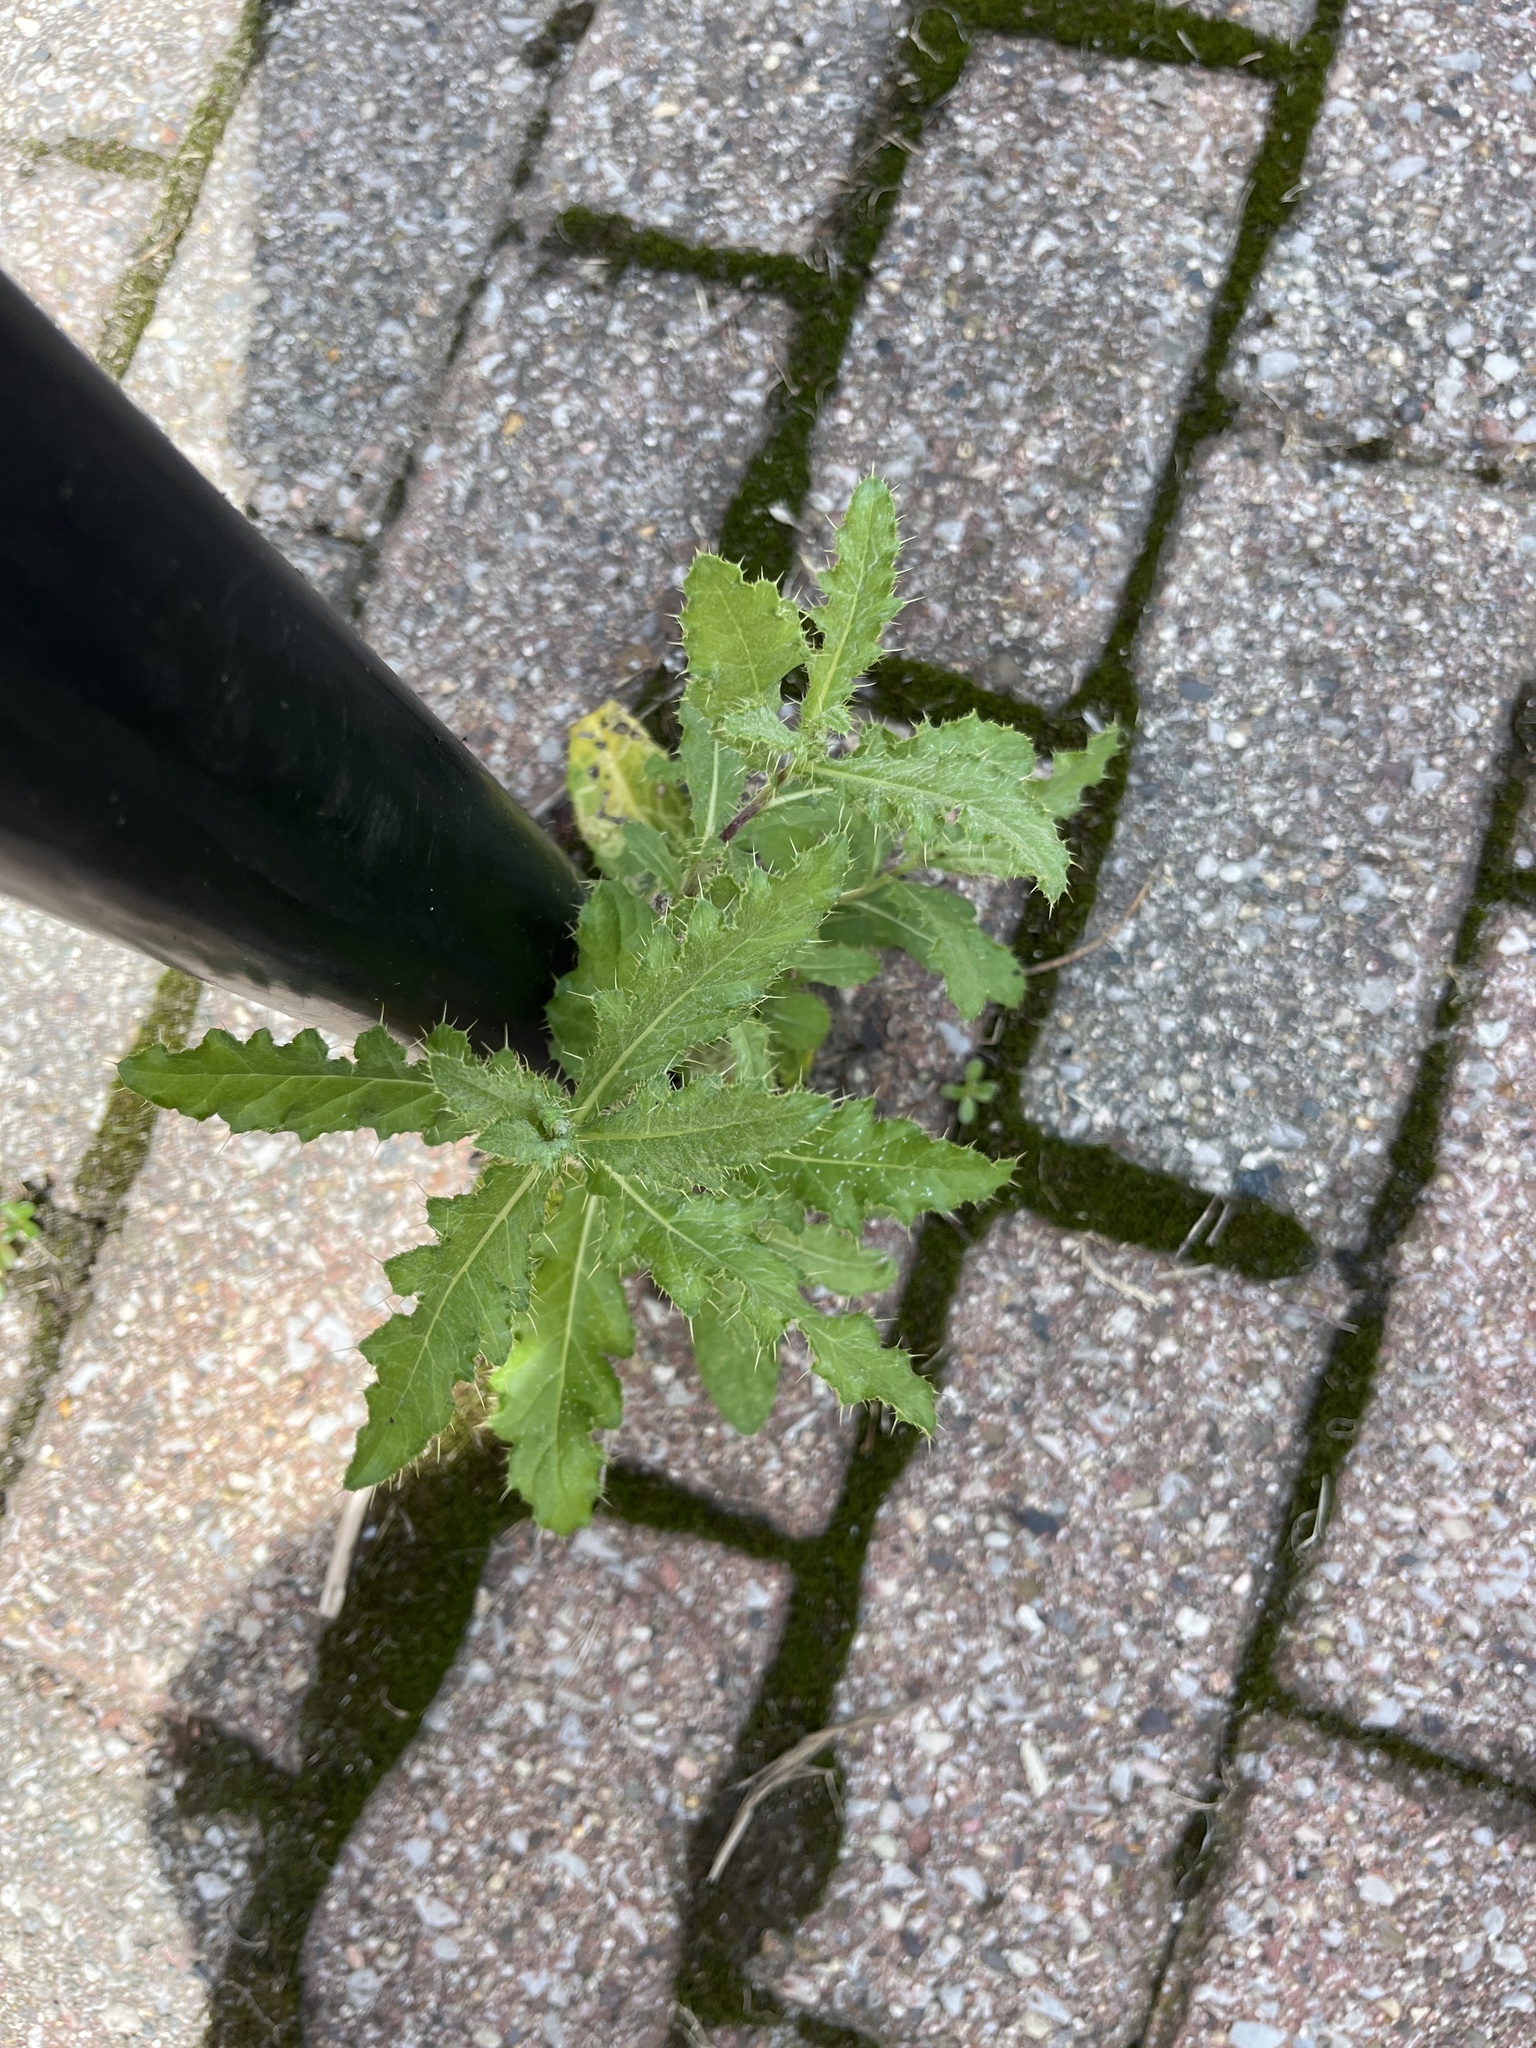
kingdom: Plantae
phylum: Tracheophyta
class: Magnoliopsida
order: Asterales
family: Asteraceae
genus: Cirsium
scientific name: Cirsium arvense
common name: Creeping thistle
